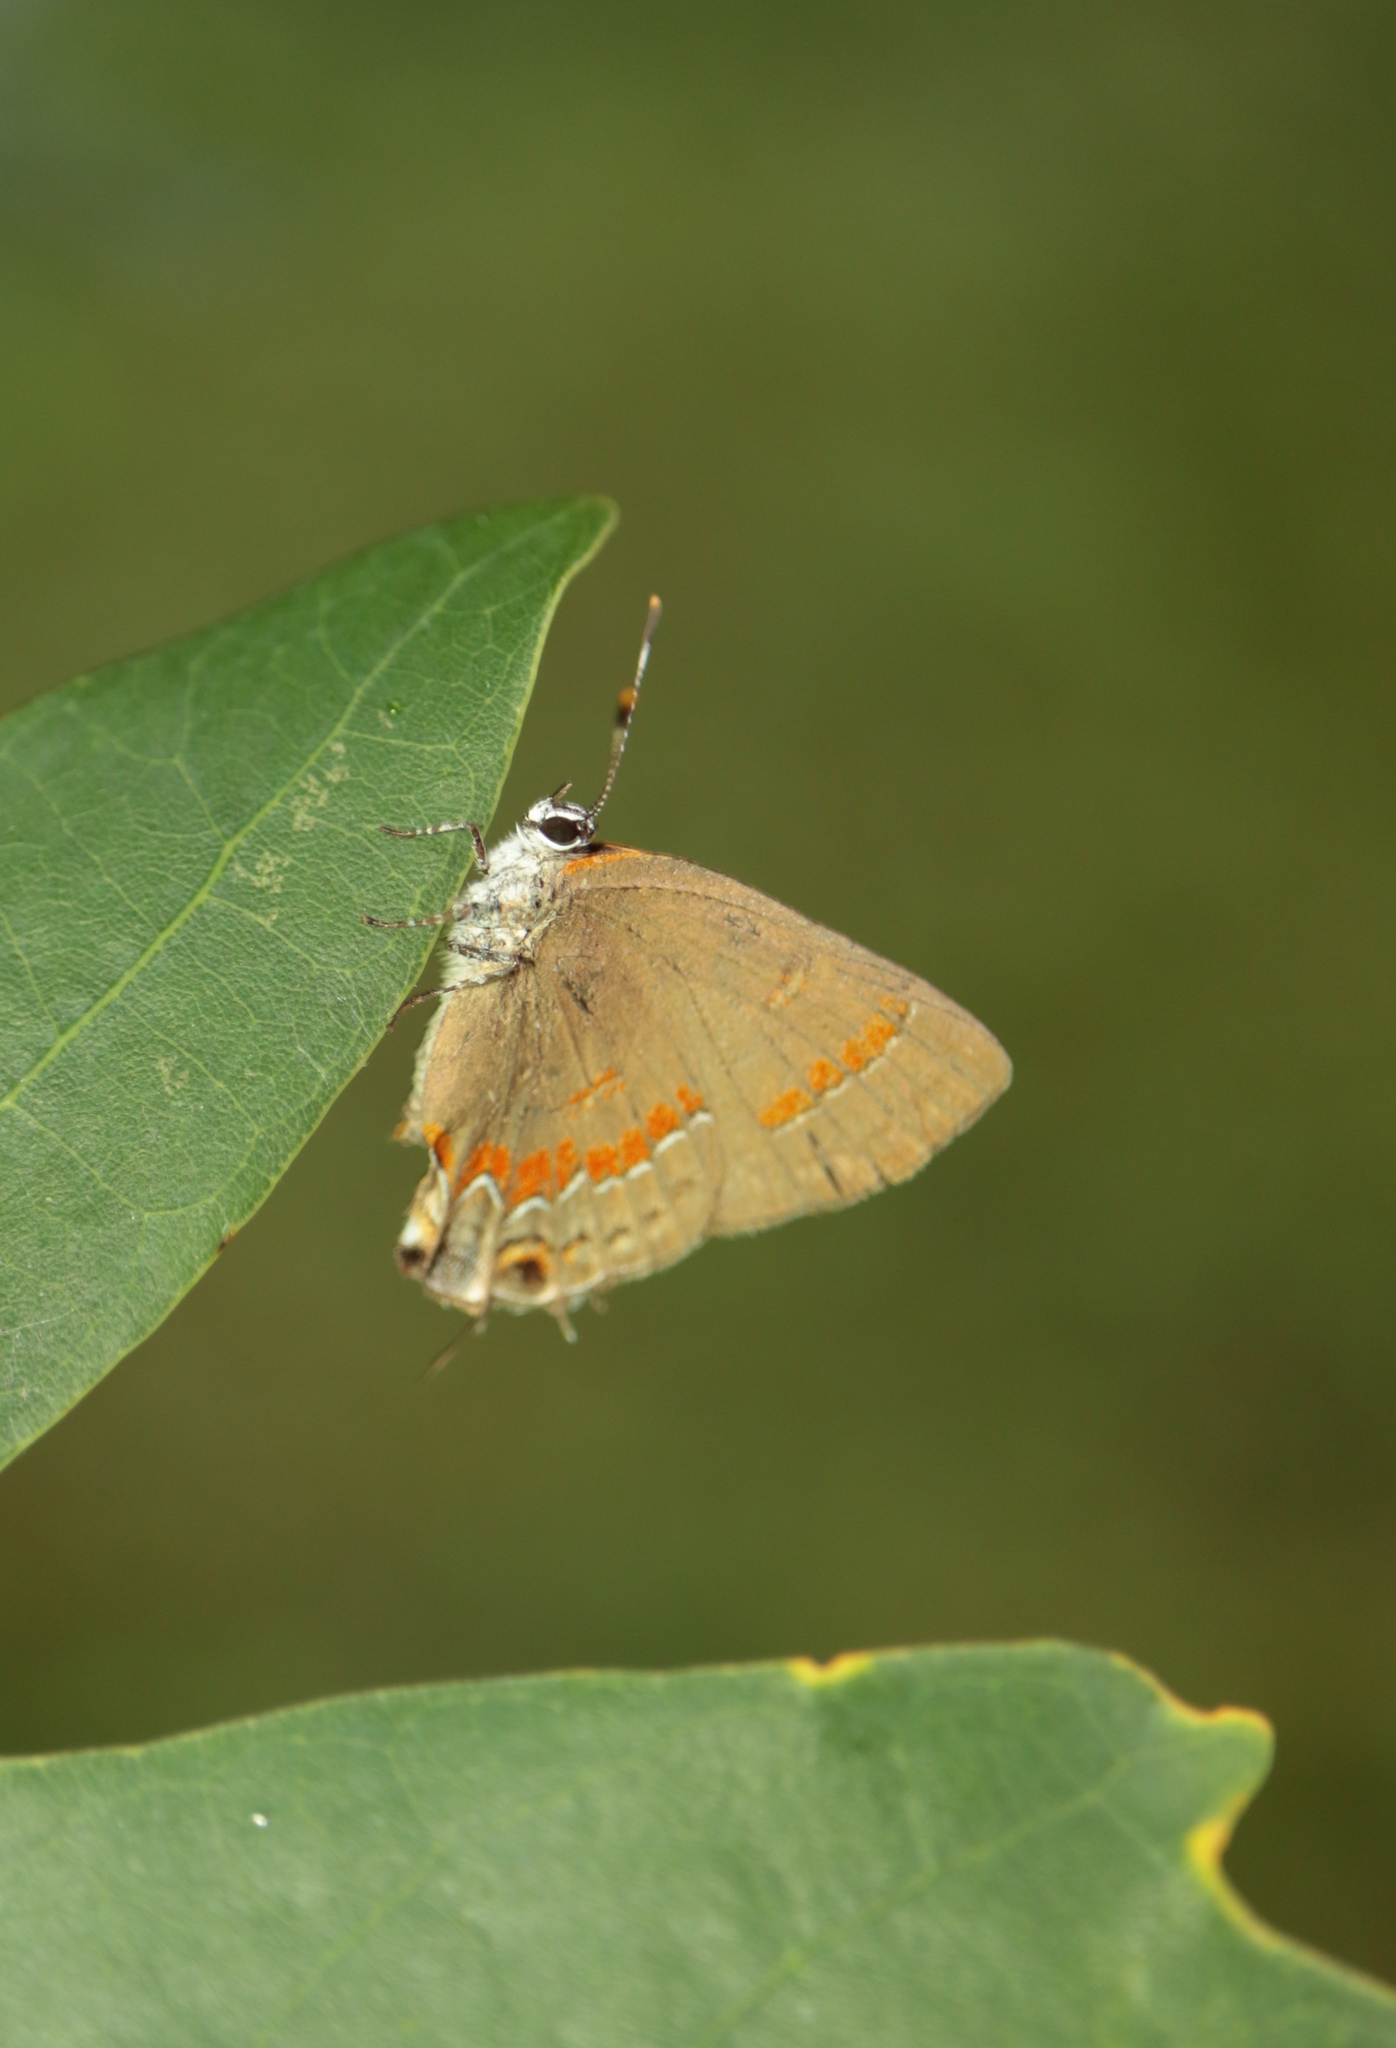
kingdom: Animalia
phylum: Arthropoda
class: Insecta
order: Lepidoptera
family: Lycaenidae
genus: Calycopis
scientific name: Calycopis cecrops
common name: Red-banded hairstreak
